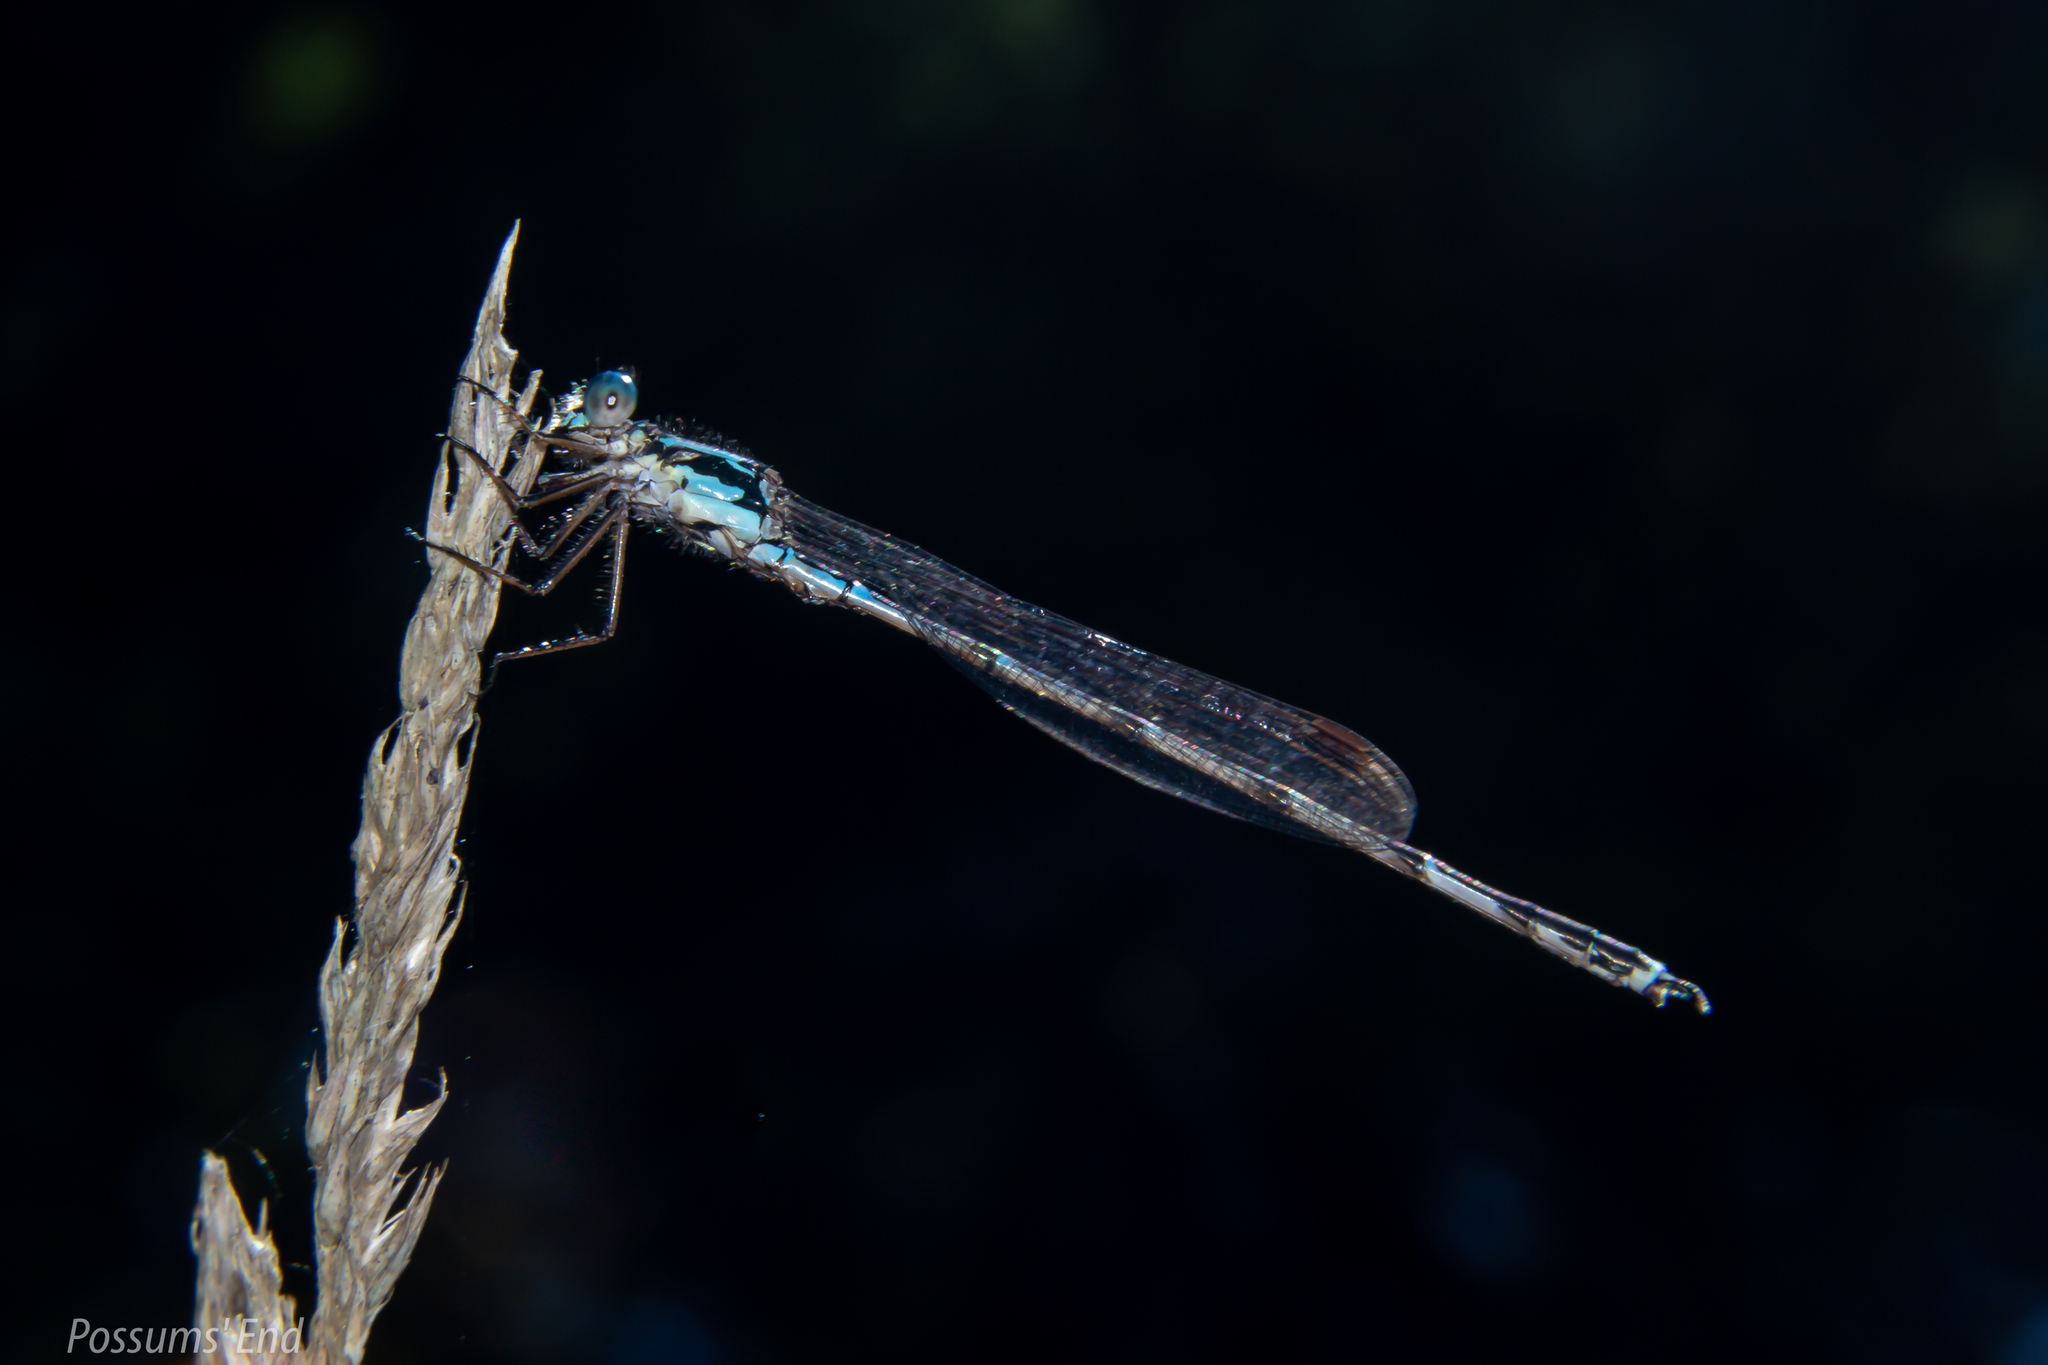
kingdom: Animalia
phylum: Arthropoda
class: Insecta
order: Odonata
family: Lestidae
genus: Austrolestes
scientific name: Austrolestes colensonis
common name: Blue damselfly
